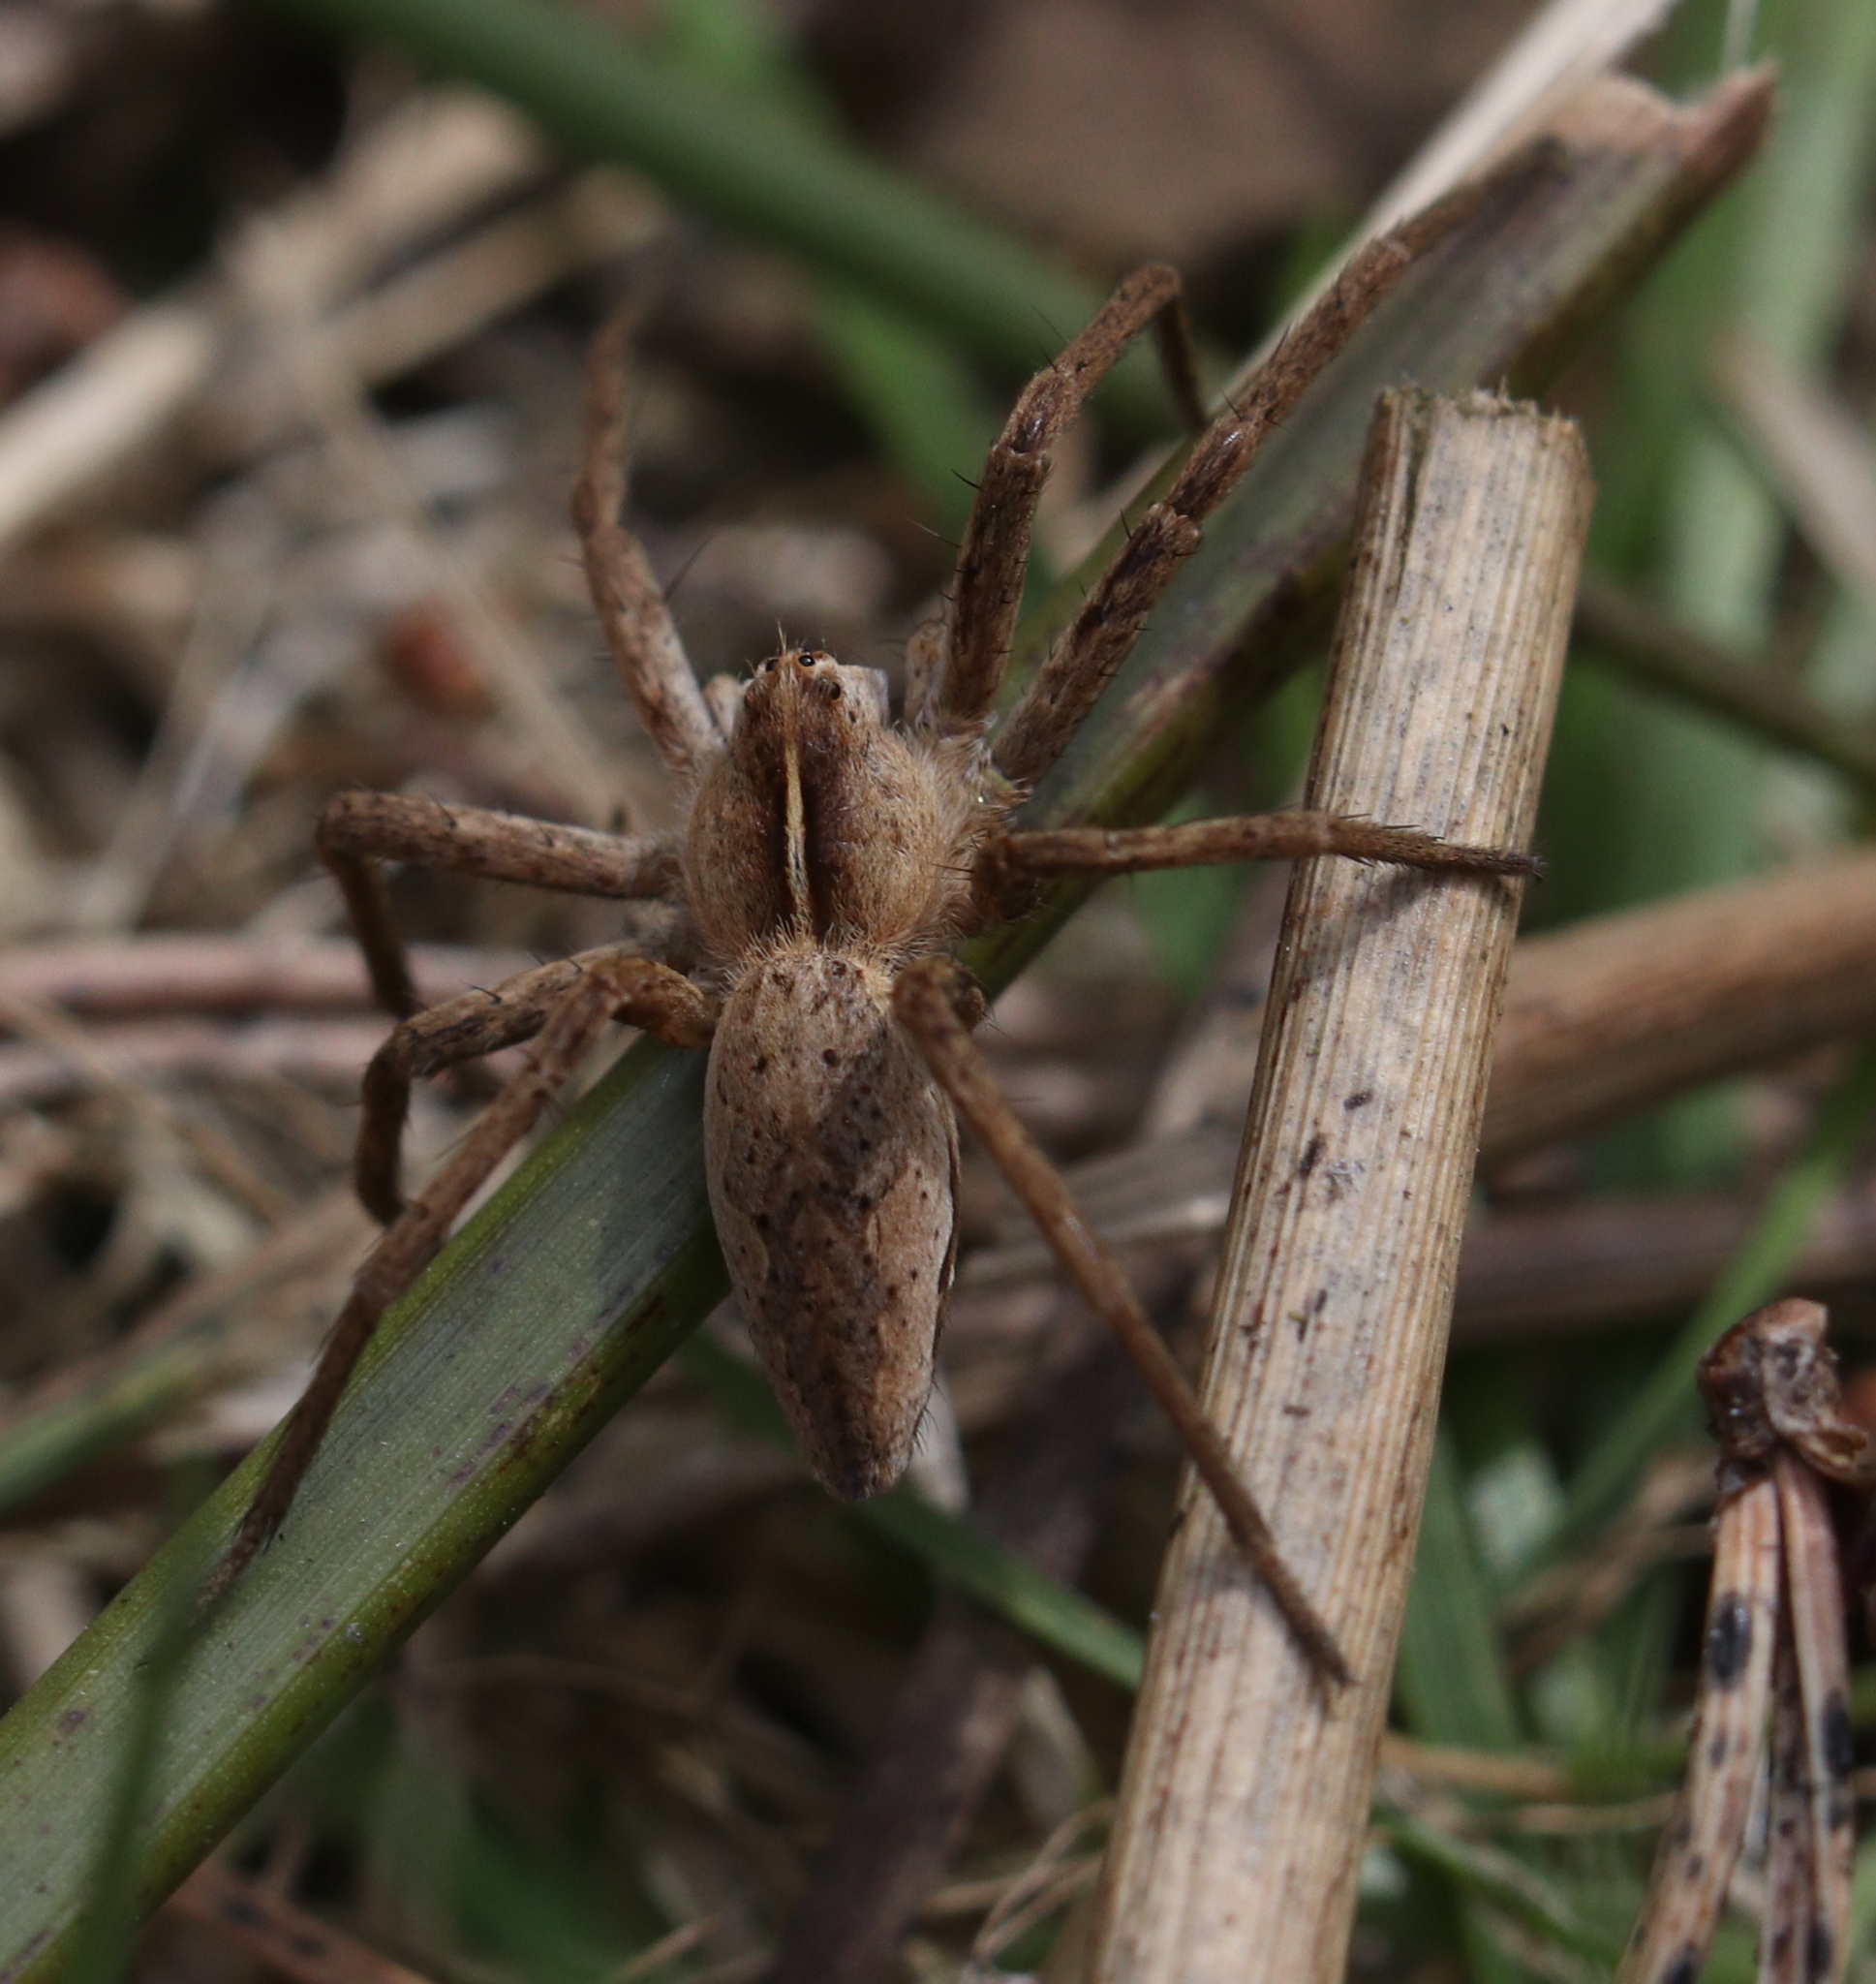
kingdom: Animalia
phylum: Arthropoda
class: Arachnida
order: Araneae
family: Pisauridae
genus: Pisaura
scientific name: Pisaura mirabilis
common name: Tent spider
